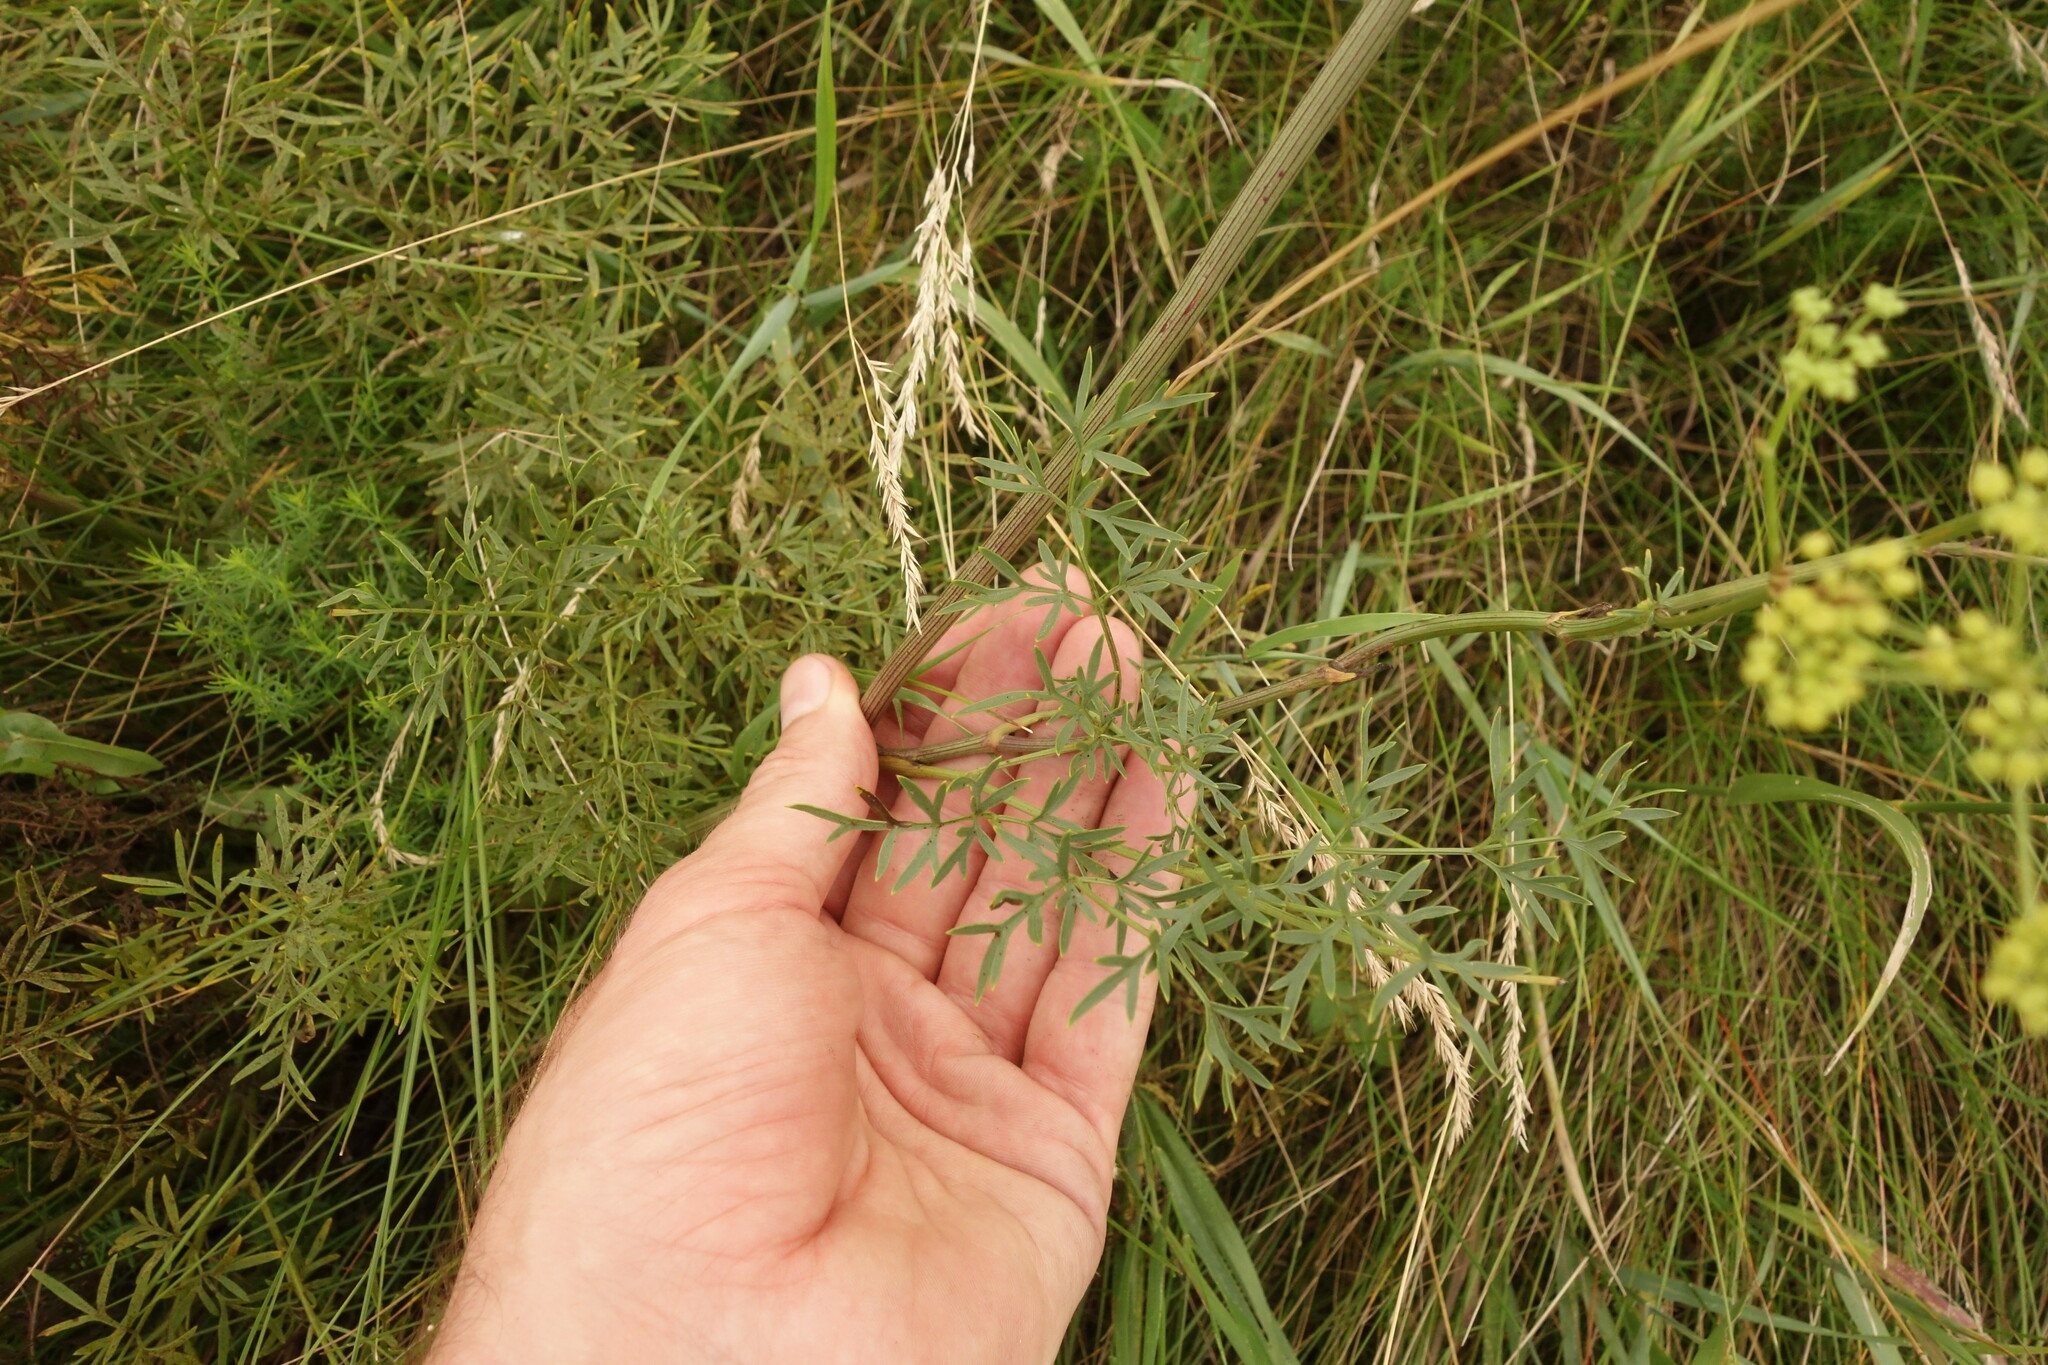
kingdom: Plantae
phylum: Tracheophyta
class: Magnoliopsida
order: Apiales
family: Apiaceae
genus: Silaum
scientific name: Silaum silaus
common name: Pepper-saxifrage
